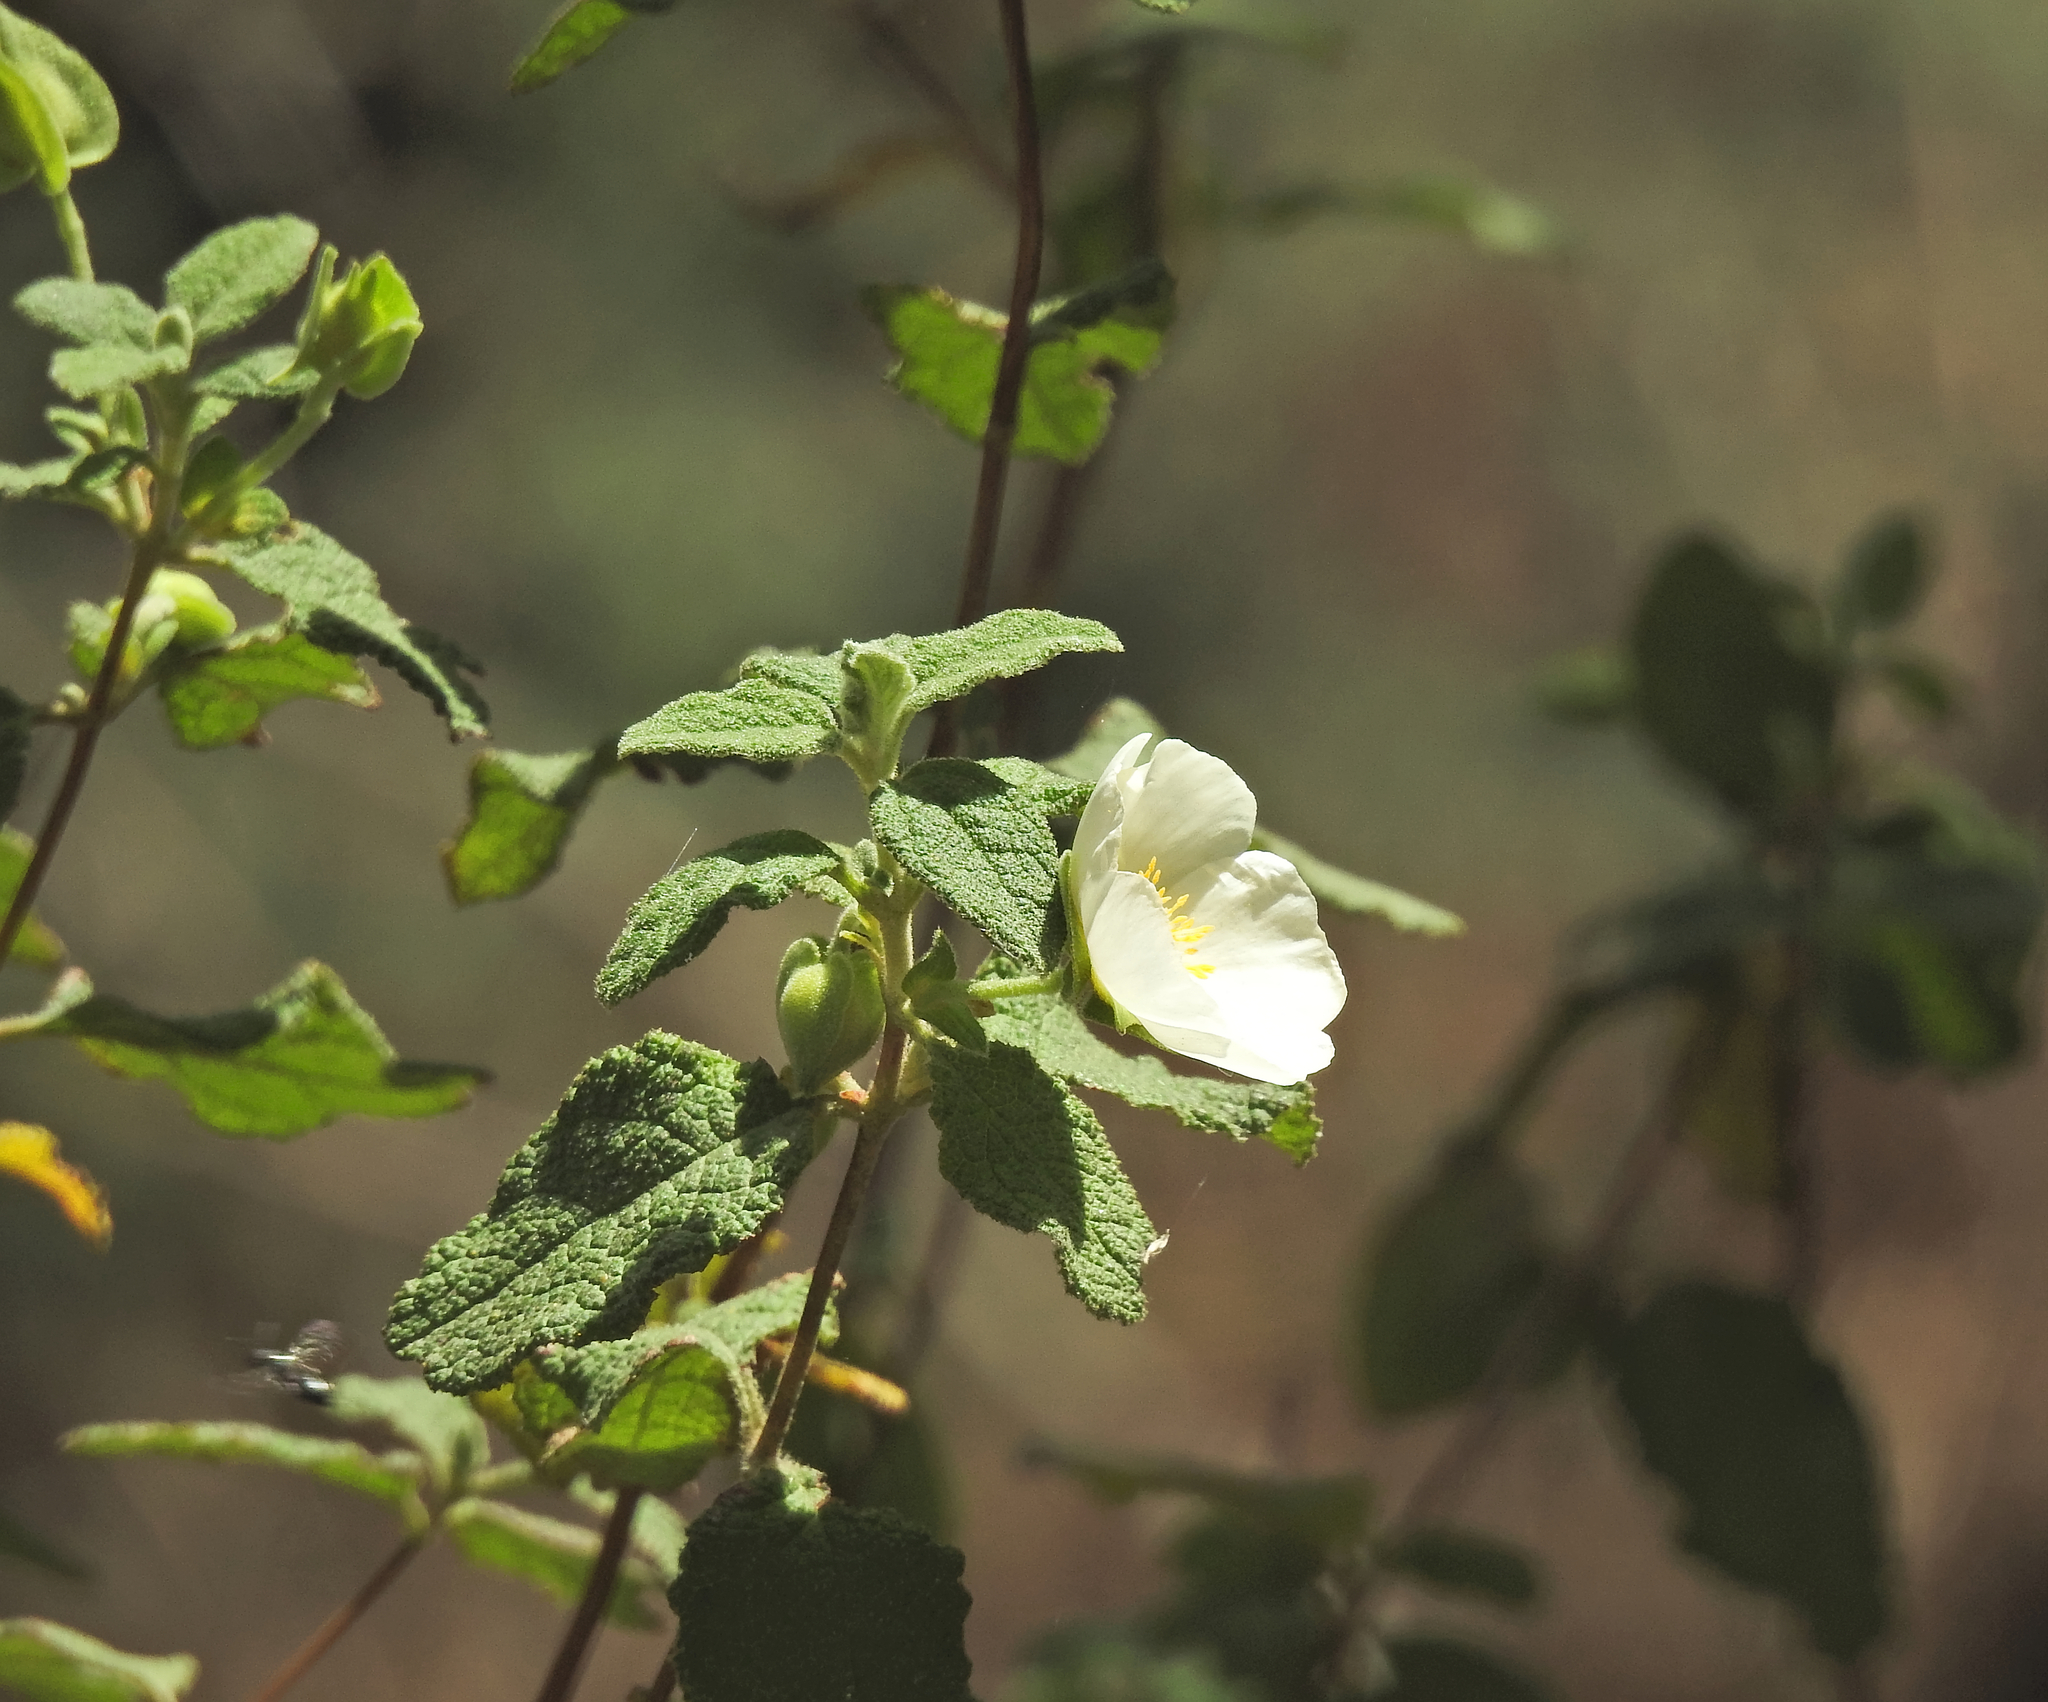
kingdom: Plantae
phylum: Tracheophyta
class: Magnoliopsida
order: Malvales
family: Cistaceae
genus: Cistus
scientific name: Cistus salviifolius
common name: Salvia cistus
